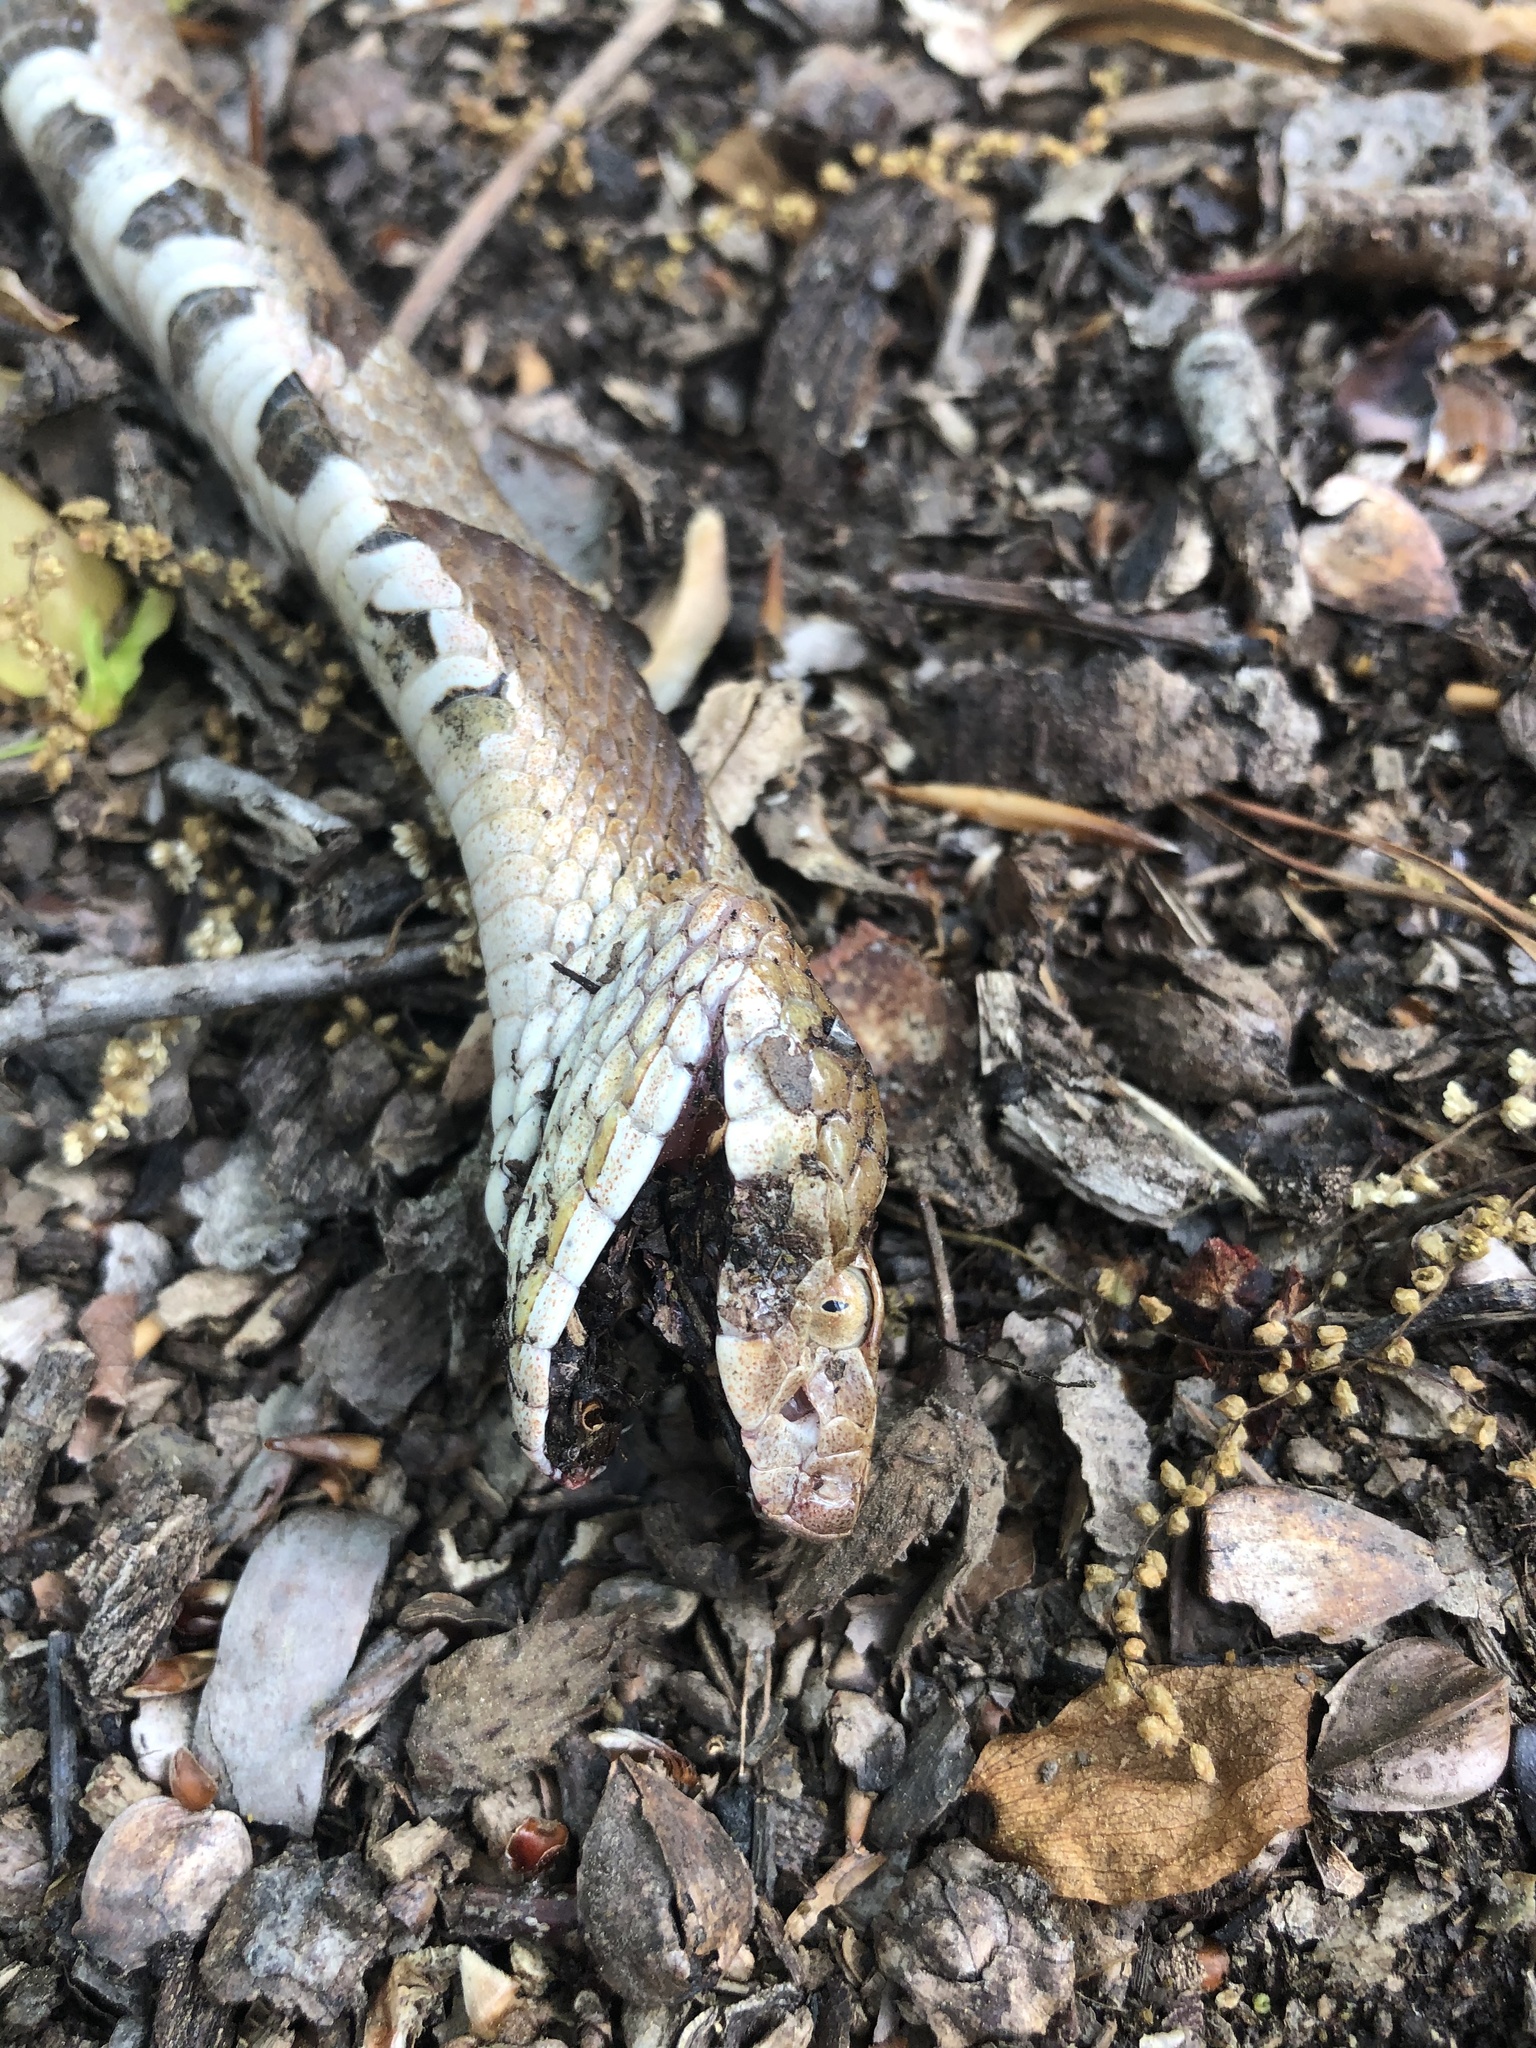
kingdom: Animalia
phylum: Chordata
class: Squamata
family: Viperidae
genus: Agkistrodon
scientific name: Agkistrodon contortrix
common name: Northern copperhead
